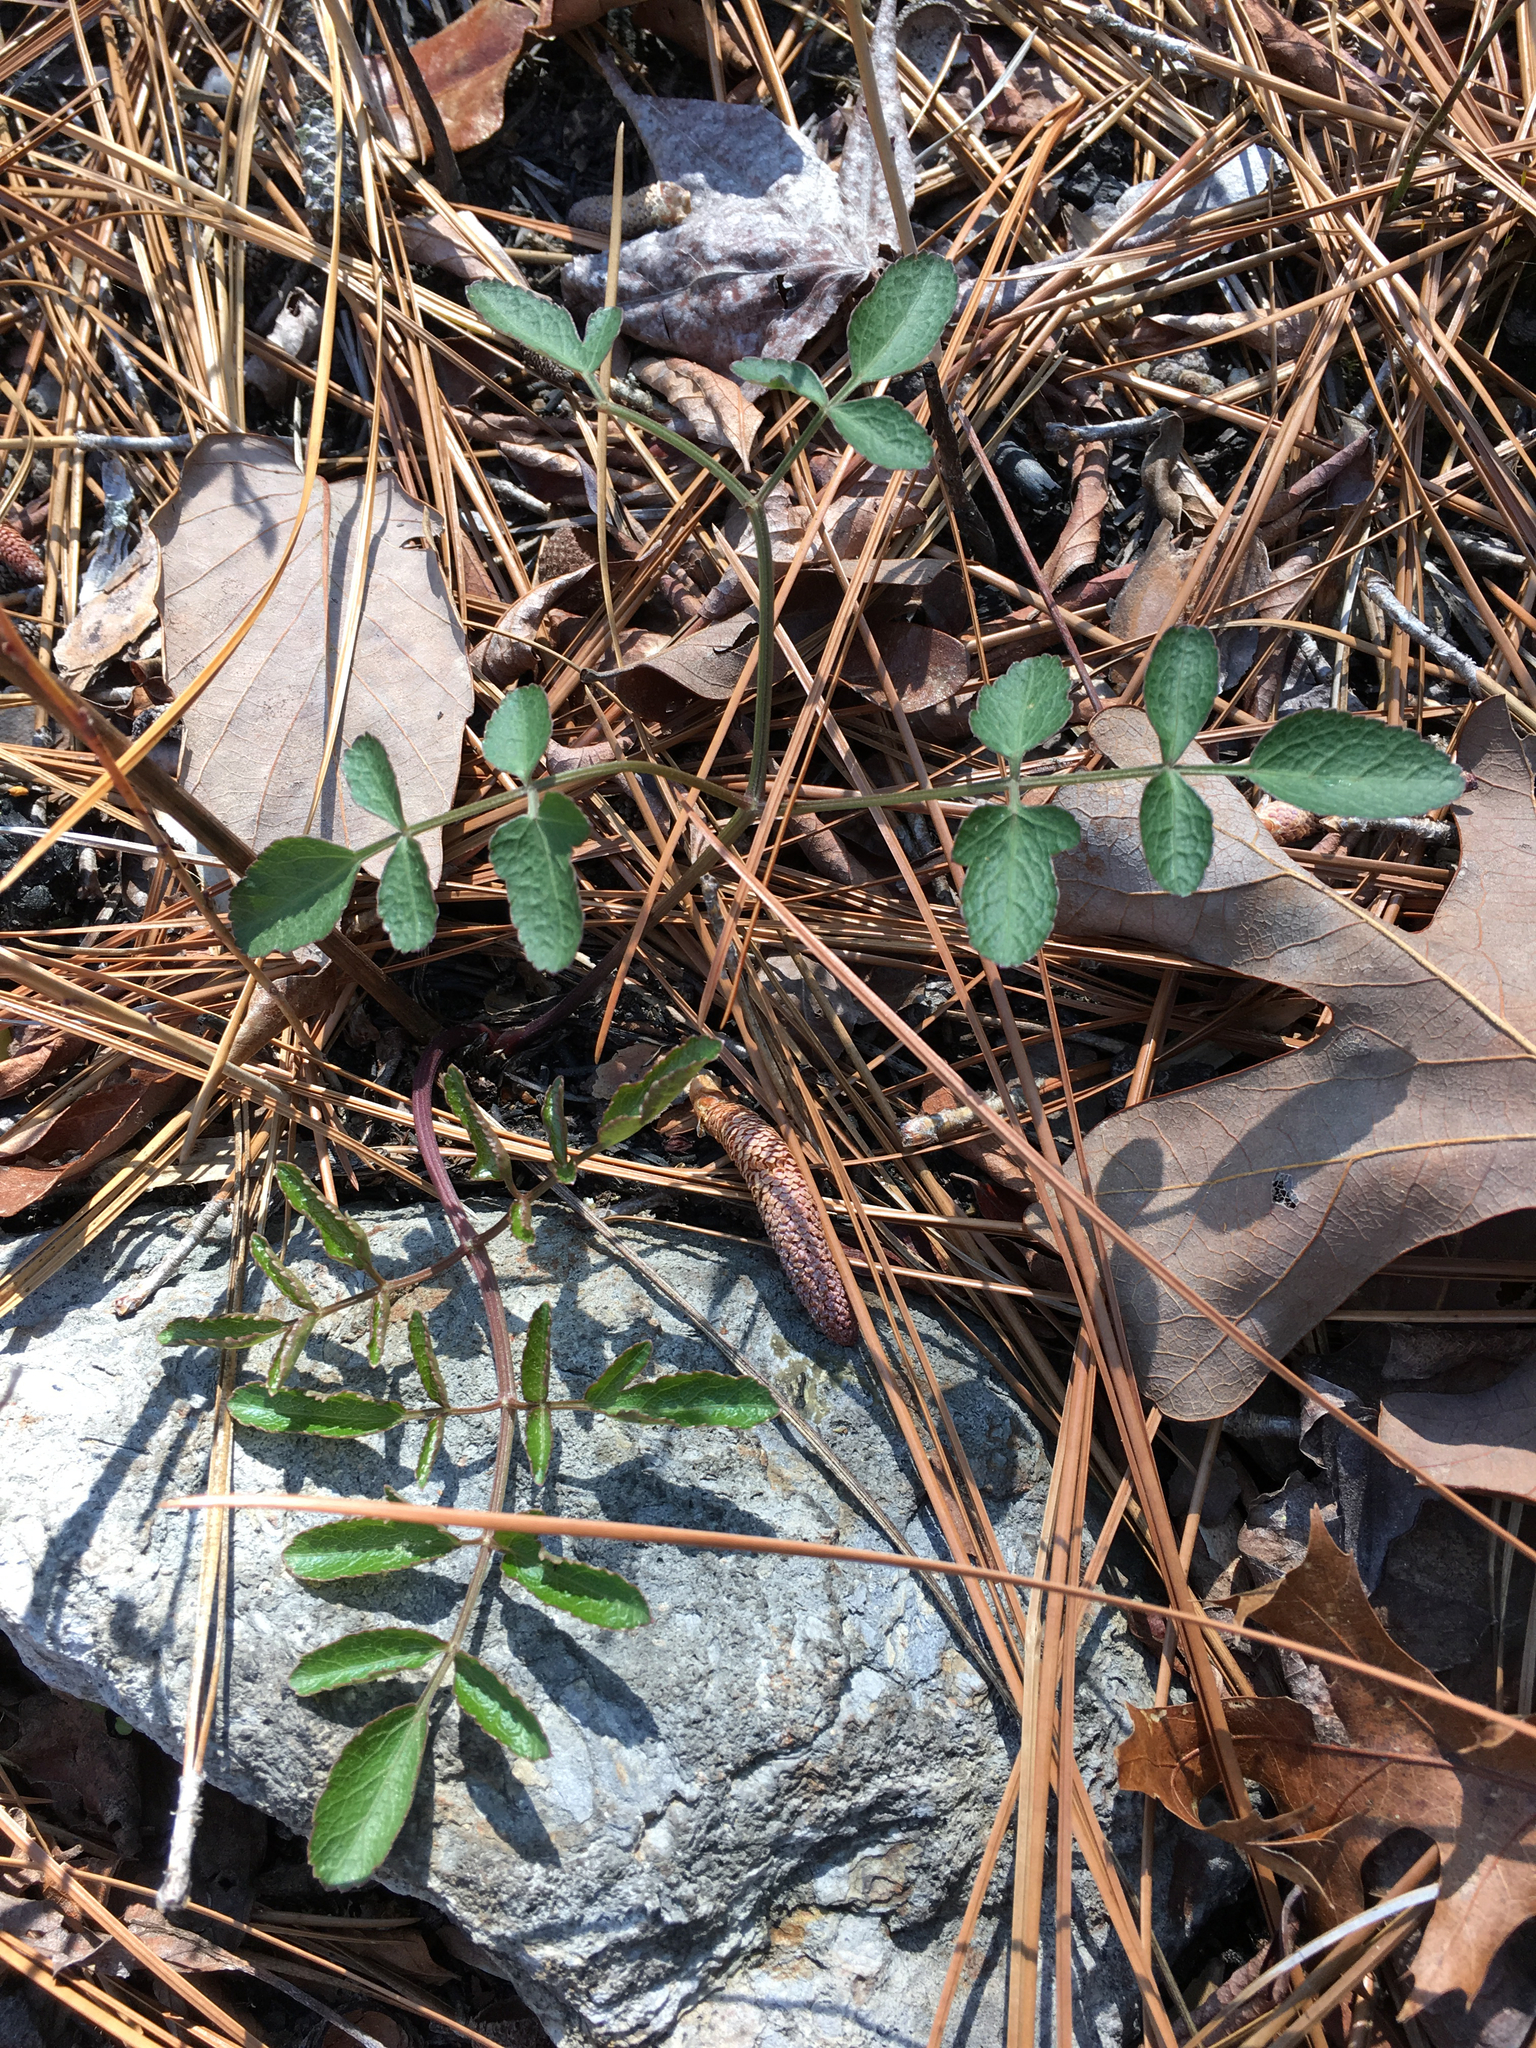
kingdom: Plantae
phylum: Tracheophyta
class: Magnoliopsida
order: Apiales
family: Apiaceae
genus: Angelica
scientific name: Angelica venenosa
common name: Hairy angelica
